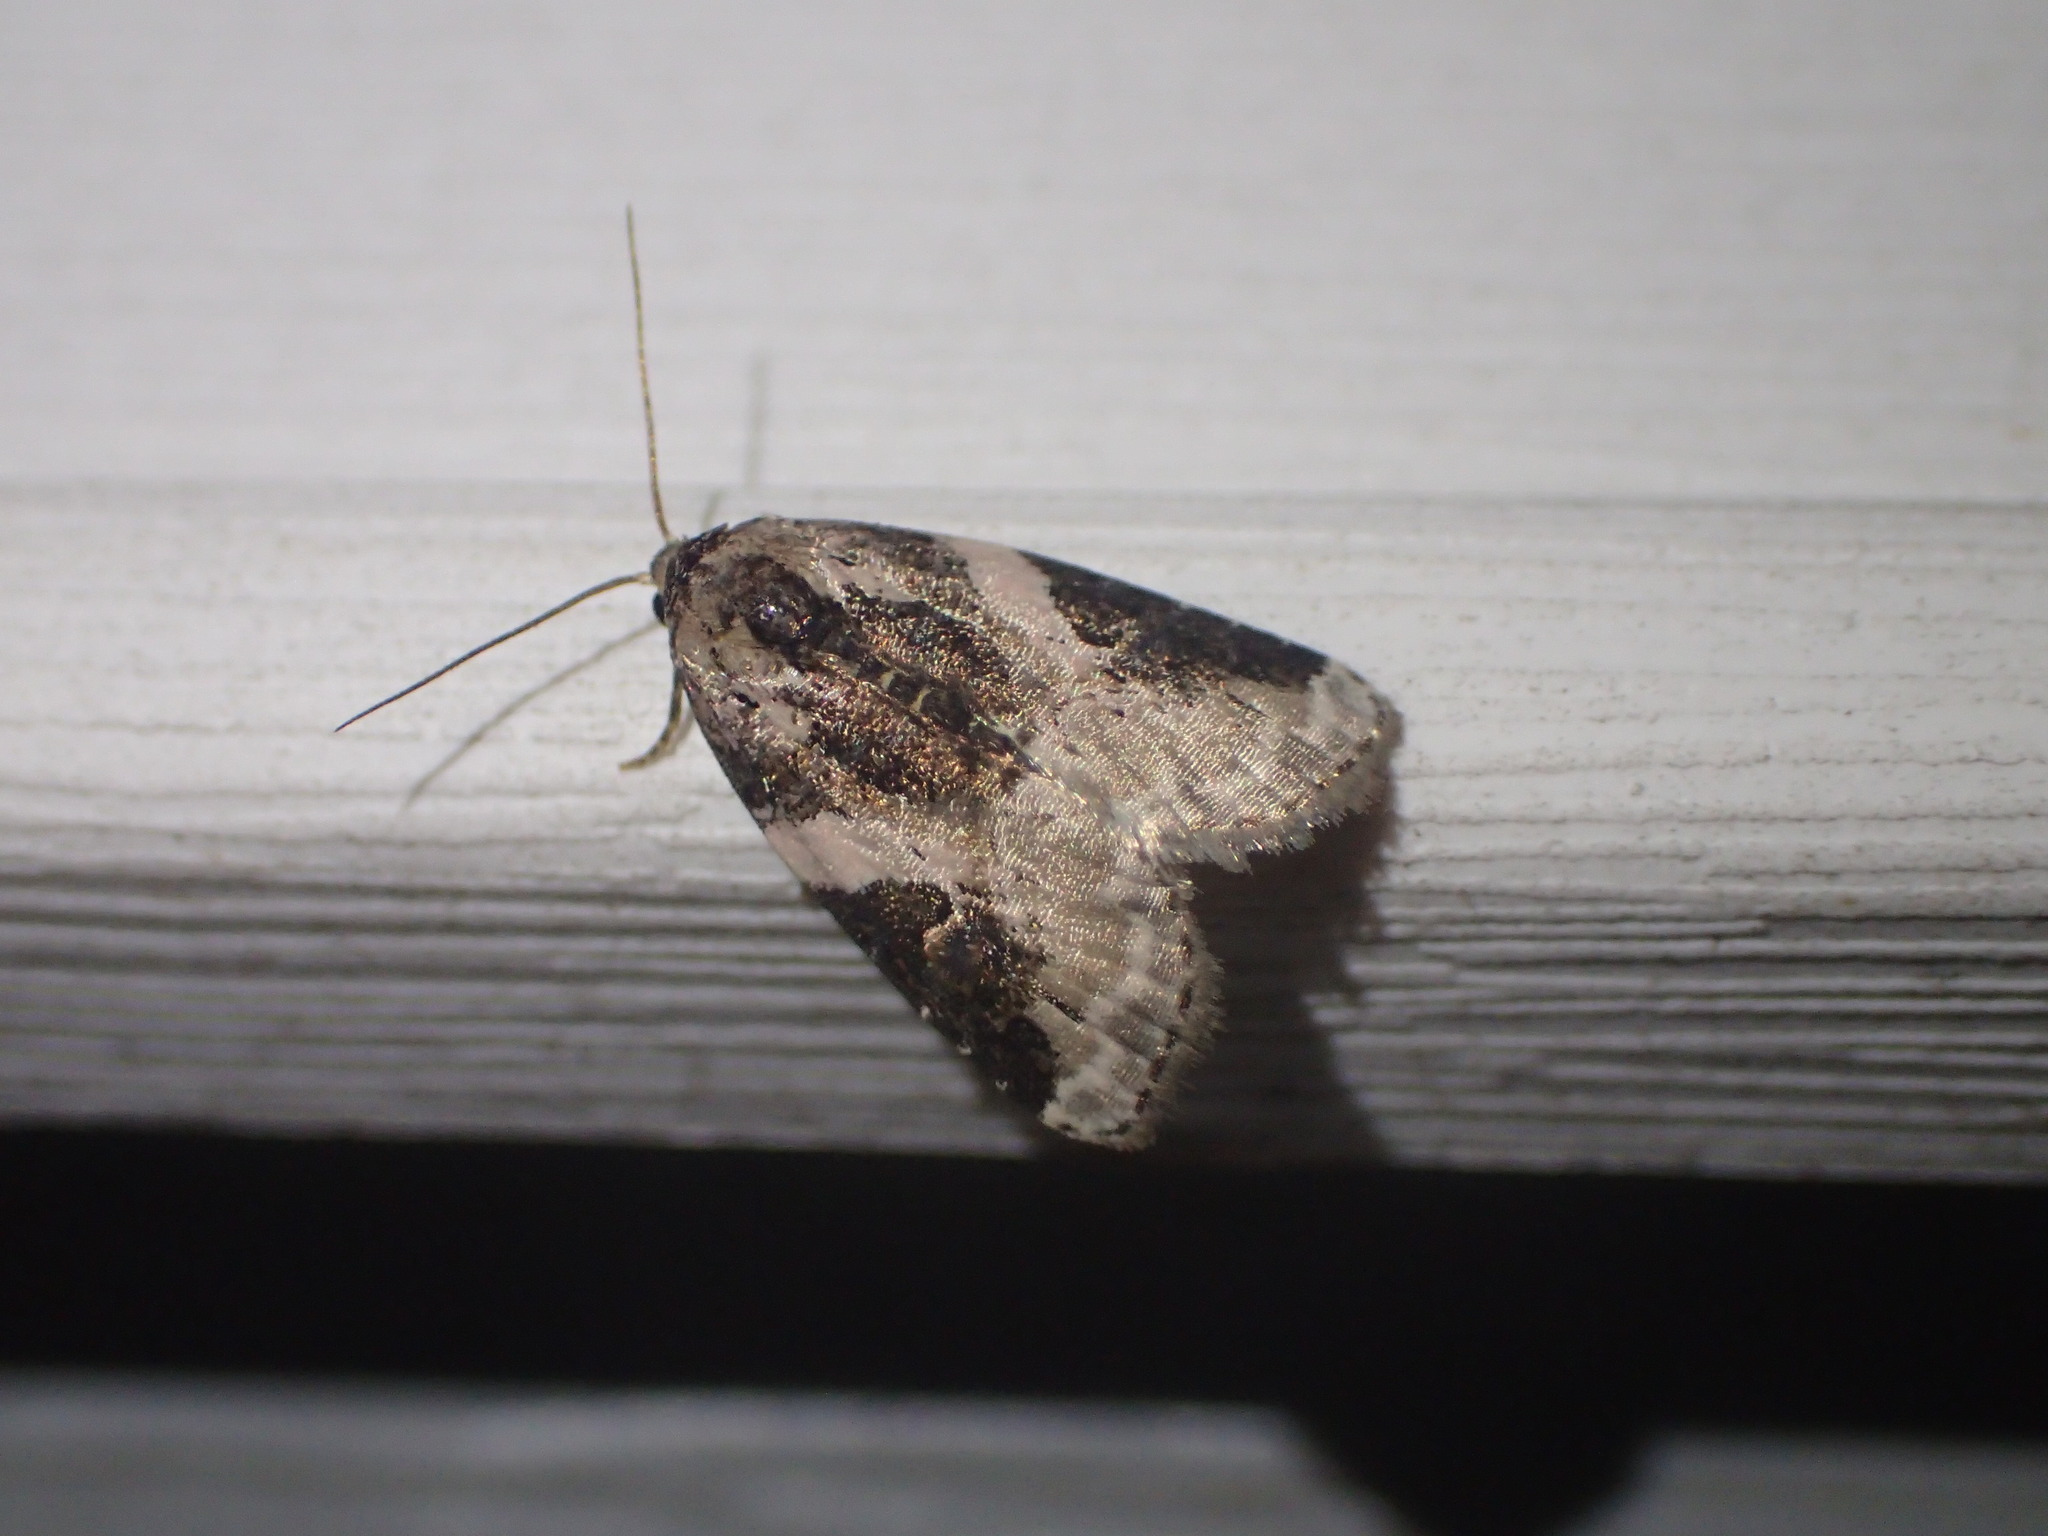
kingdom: Animalia
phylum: Arthropoda
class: Insecta
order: Lepidoptera
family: Noctuidae
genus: Pseudeustrotia
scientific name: Pseudeustrotia carneola
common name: Pink-barred lithacodia moth
